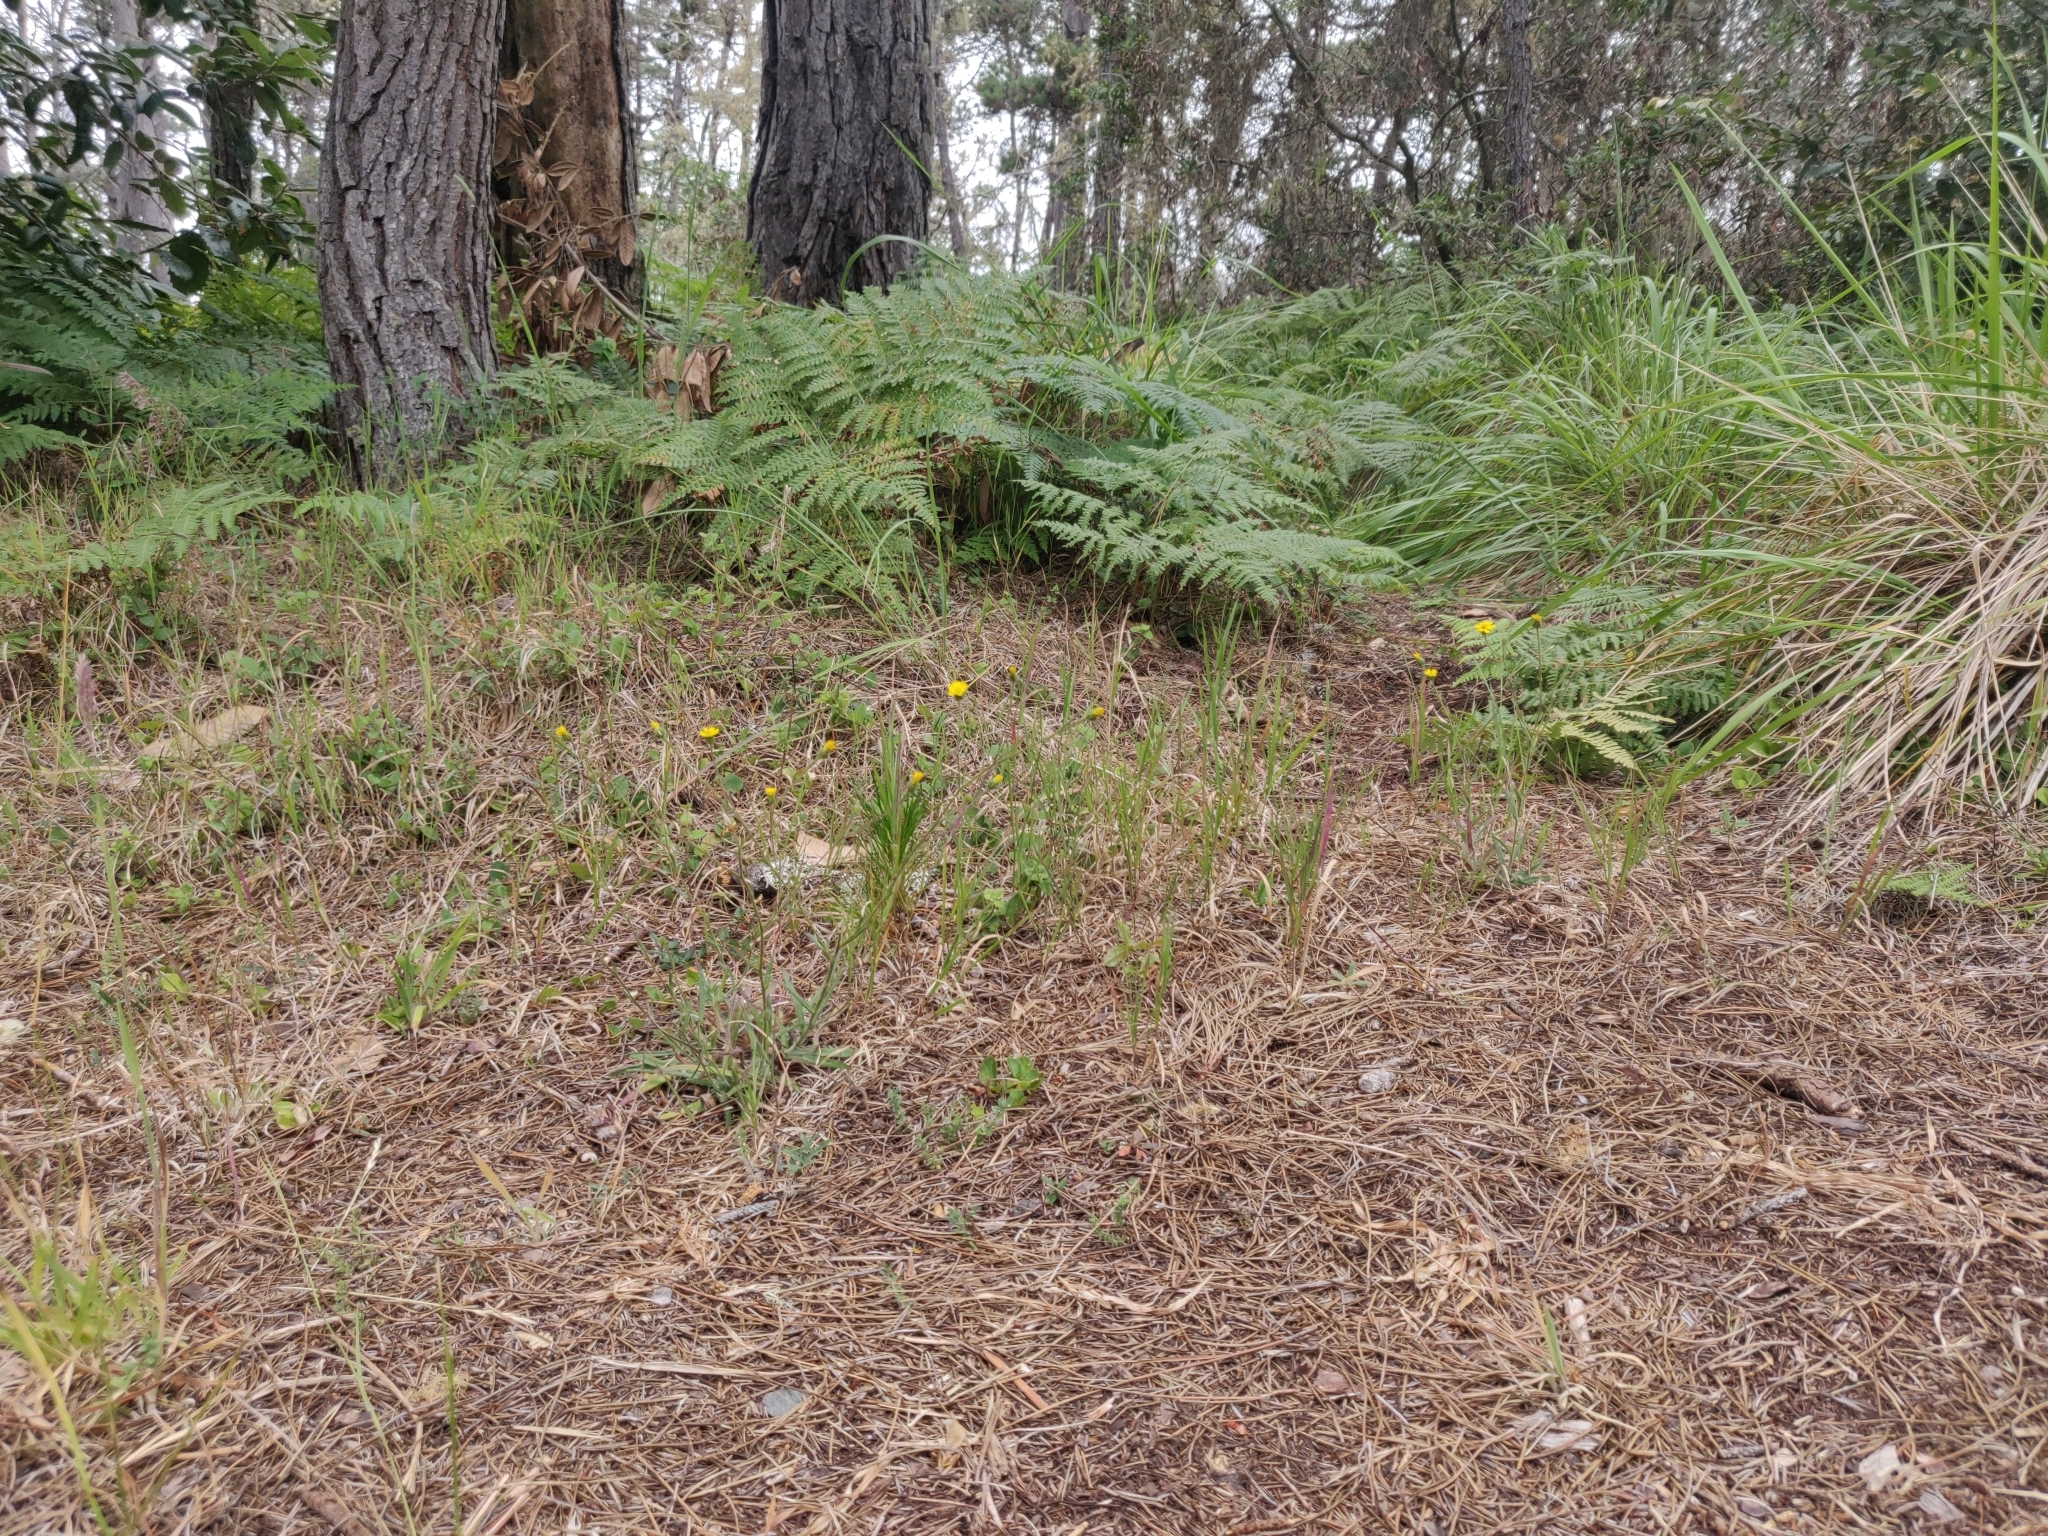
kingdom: Plantae
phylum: Tracheophyta
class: Magnoliopsida
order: Asterales
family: Asteraceae
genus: Anisocarpus
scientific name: Anisocarpus madioides
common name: Woodland madia
